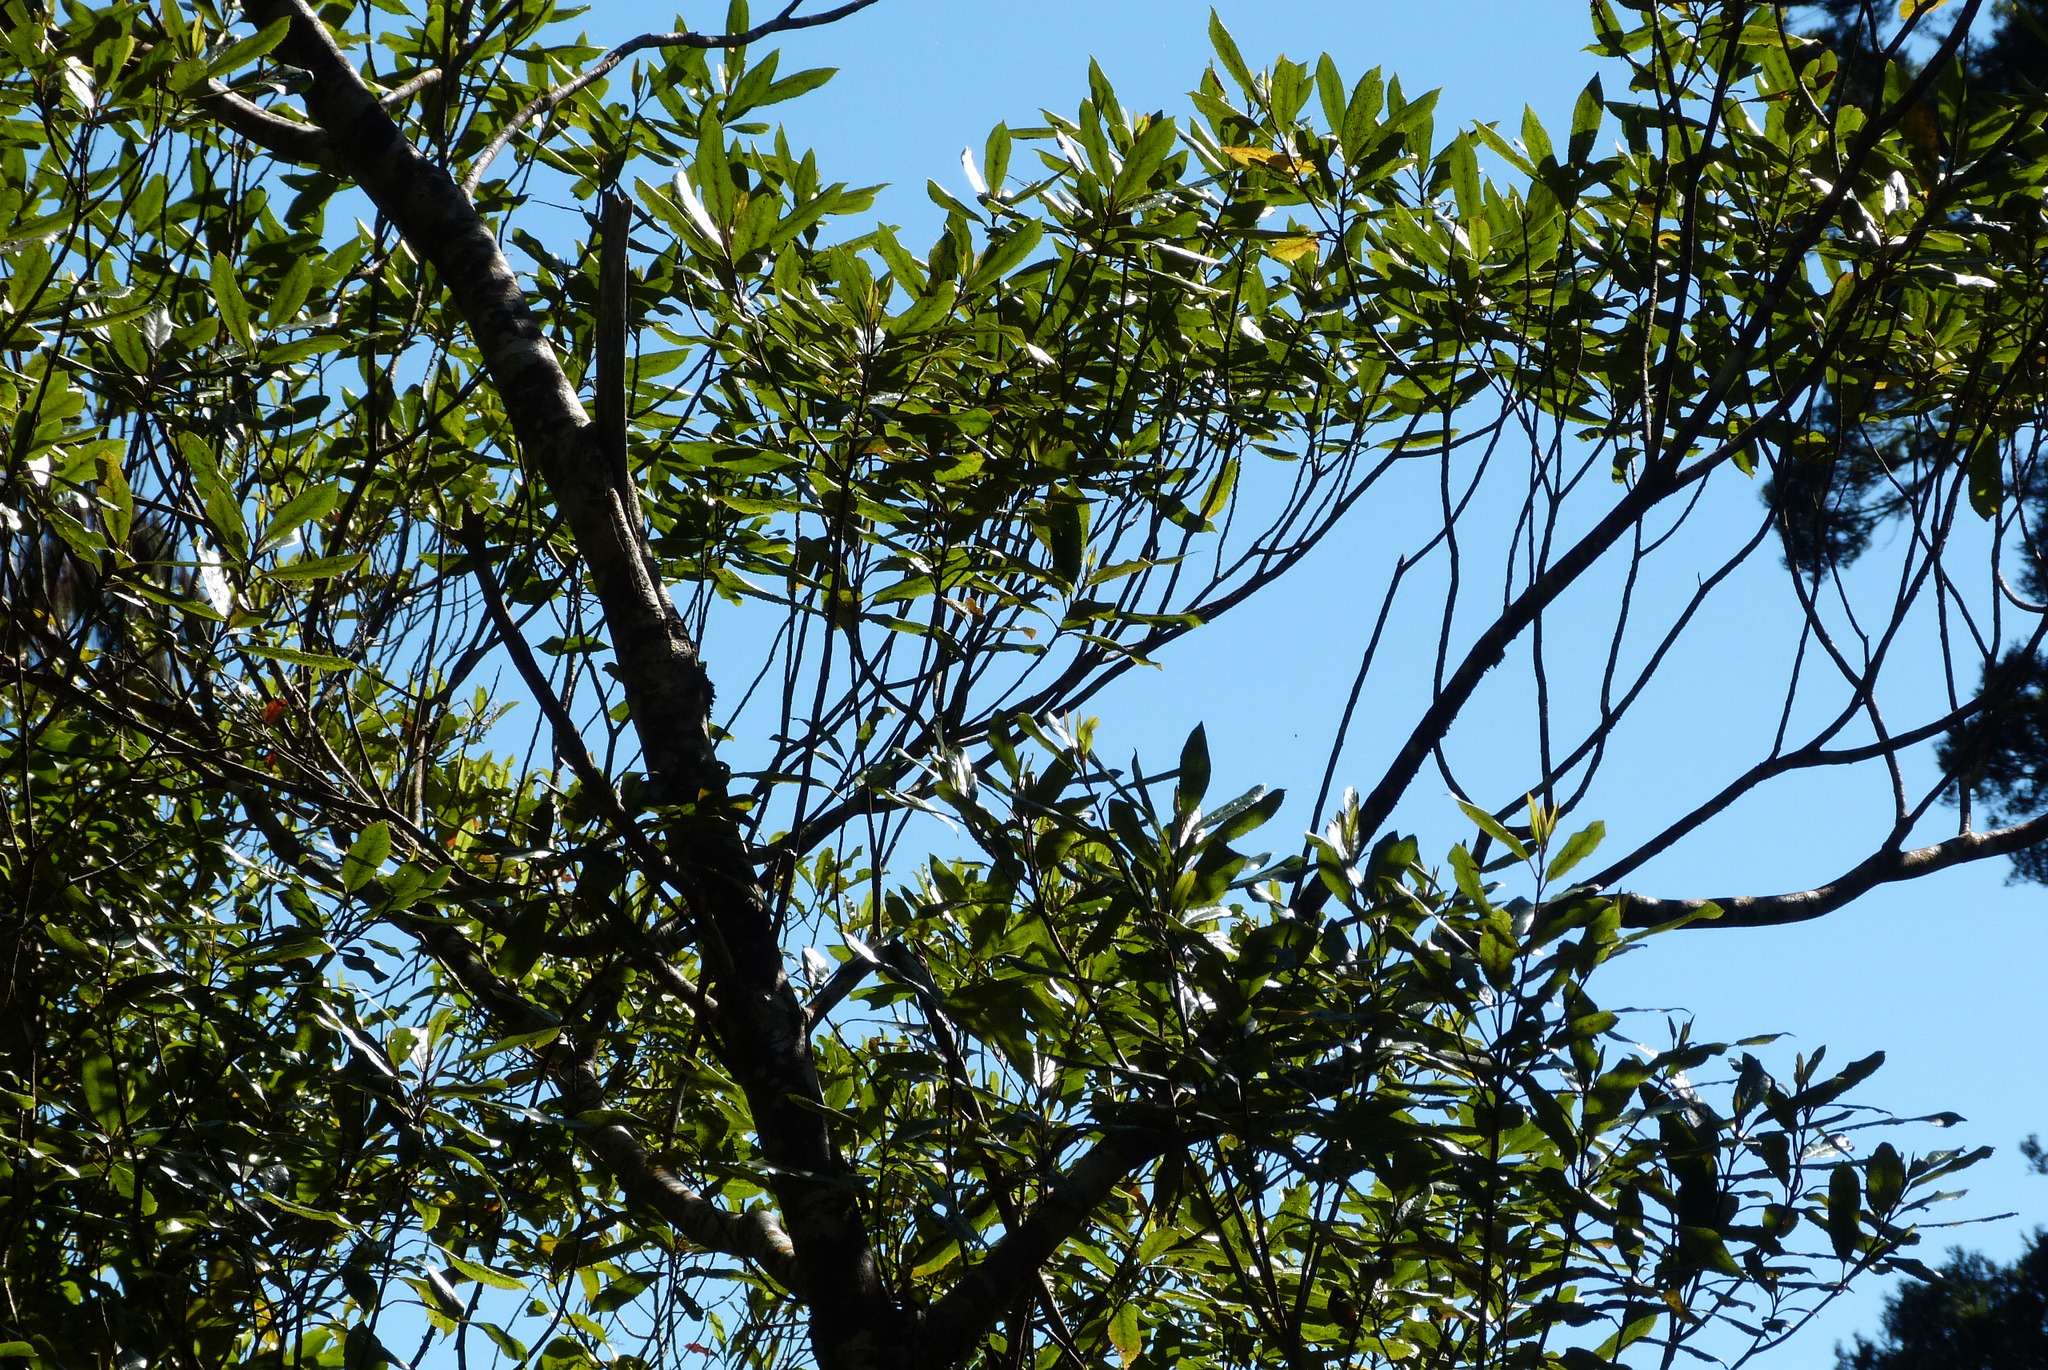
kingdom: Plantae
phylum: Tracheophyta
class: Magnoliopsida
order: Oxalidales
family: Elaeocarpaceae
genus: Elaeocarpus
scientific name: Elaeocarpus dentatus
